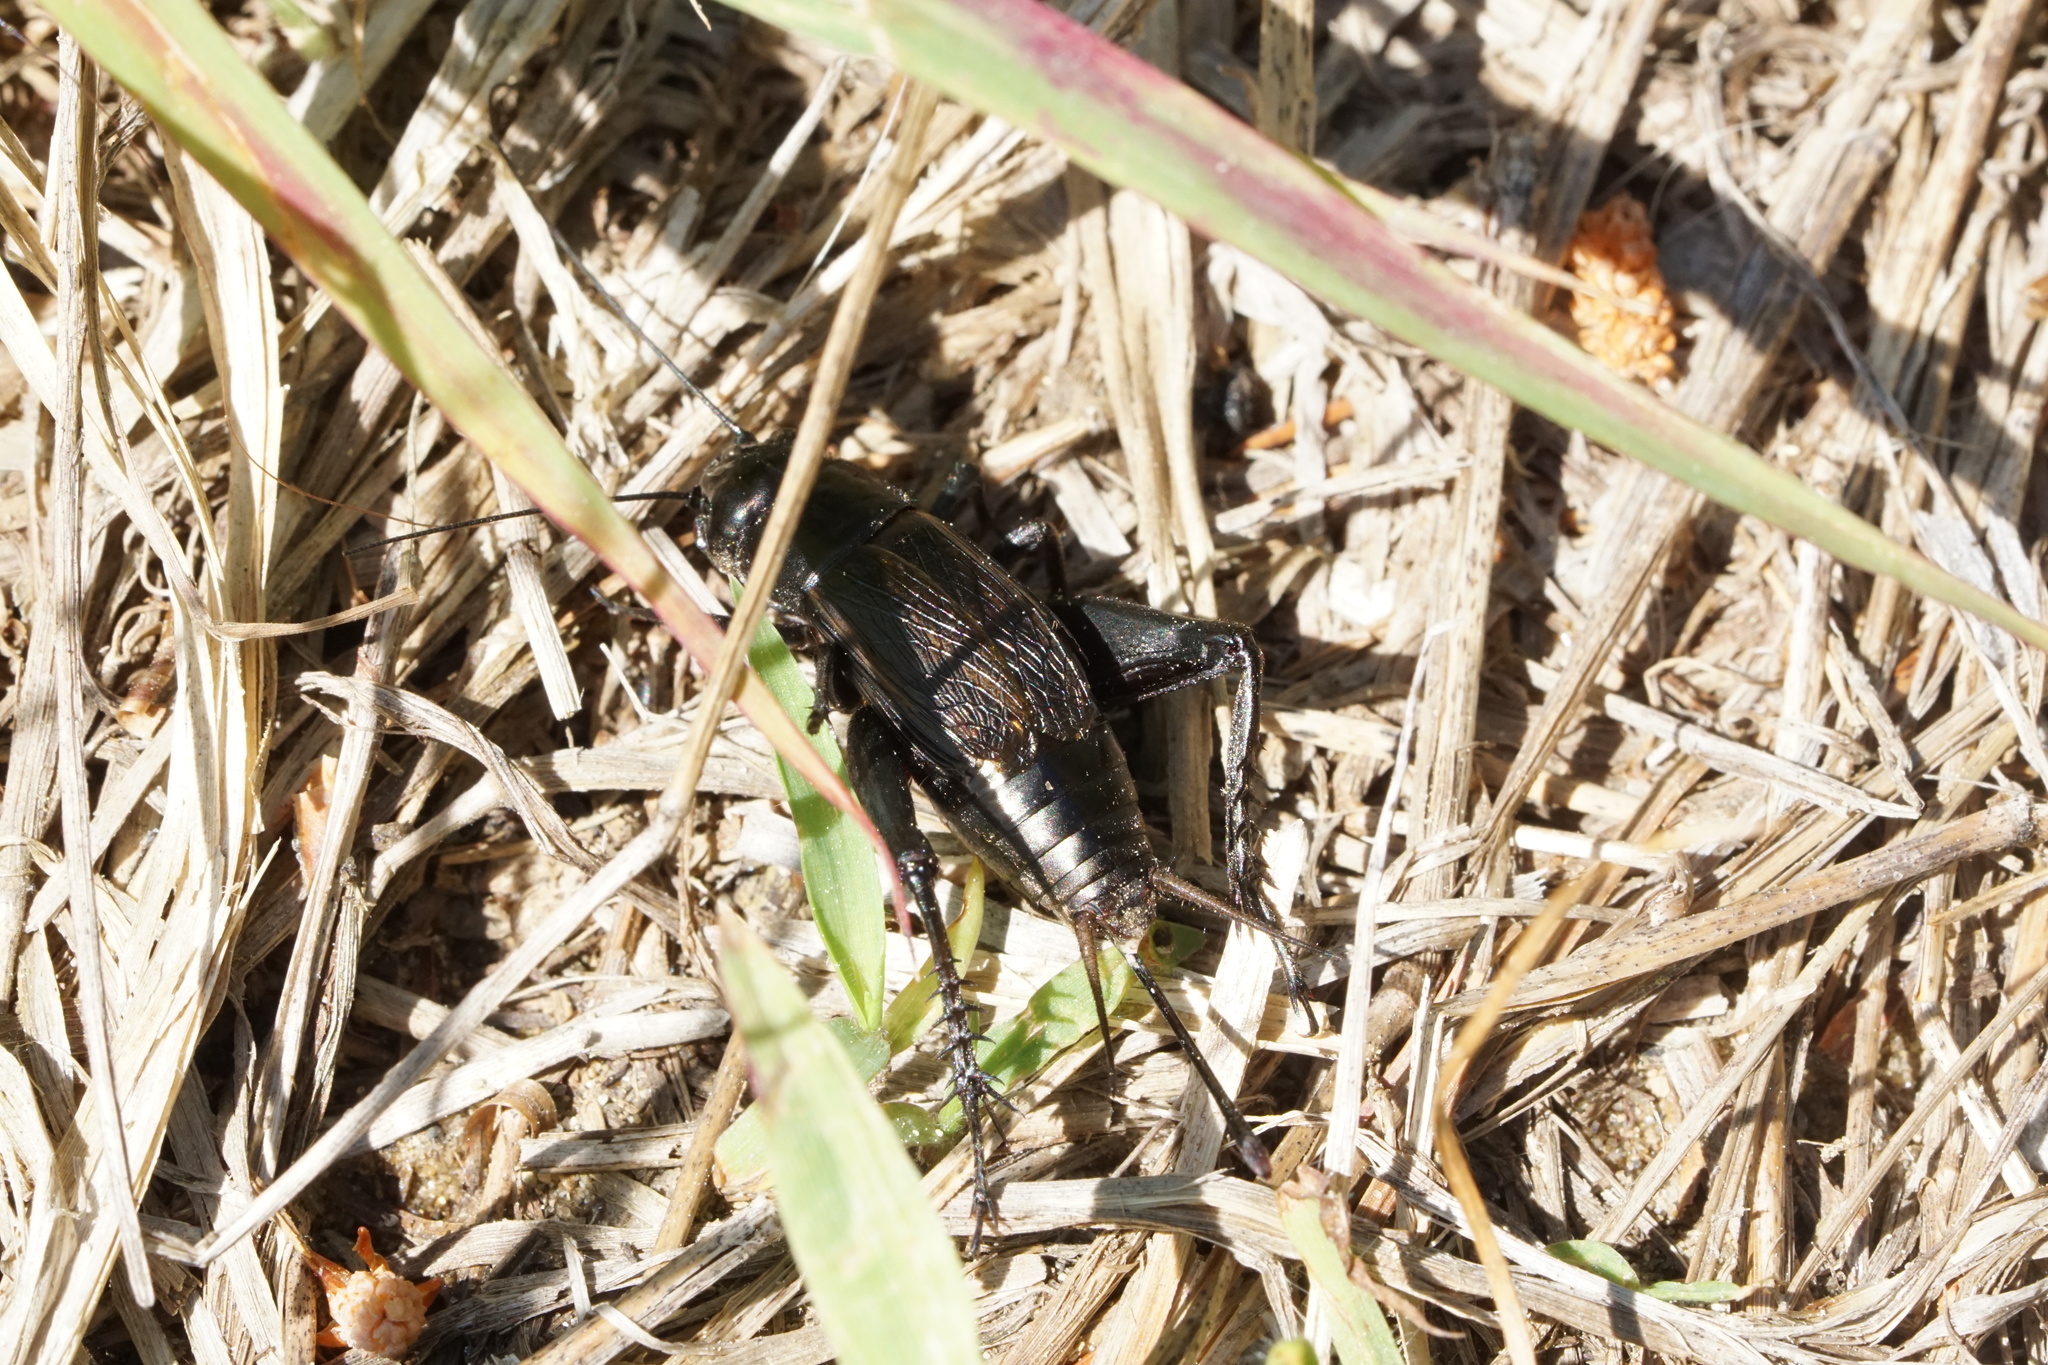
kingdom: Animalia
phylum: Arthropoda
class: Insecta
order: Orthoptera
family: Gryllidae
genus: Gryllus
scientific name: Gryllus veletis
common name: Spring field cricket
